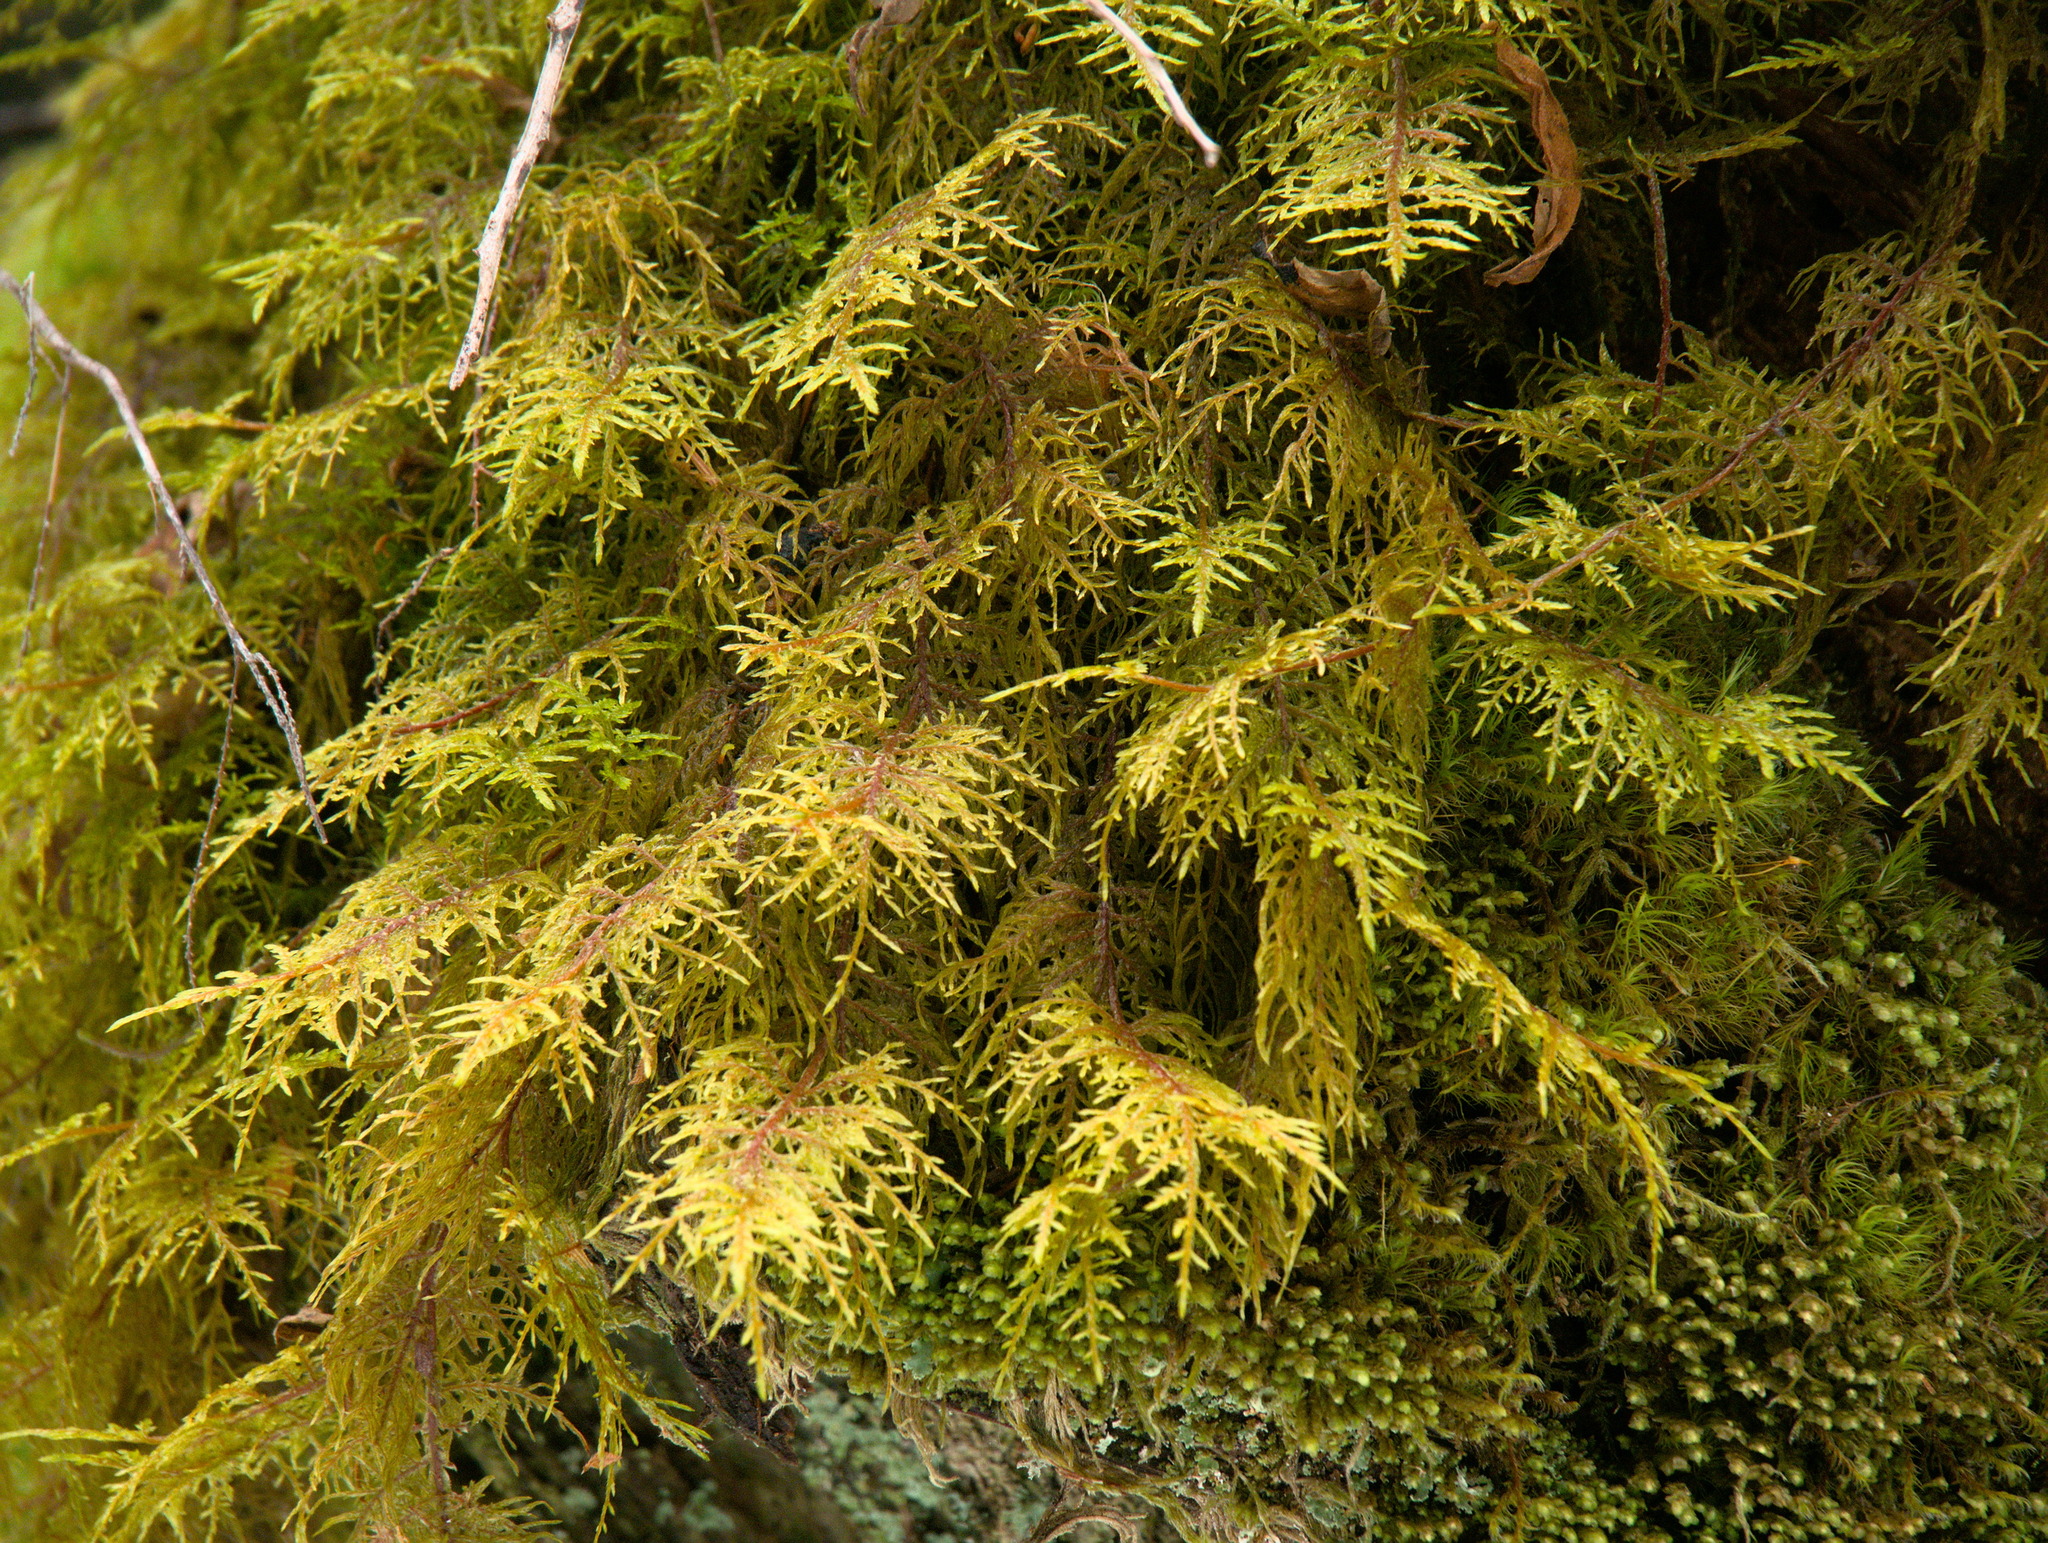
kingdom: Plantae
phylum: Bryophyta
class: Bryopsida
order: Hypnales
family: Hylocomiaceae
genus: Hylocomium
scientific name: Hylocomium splendens
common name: Stairstep moss
